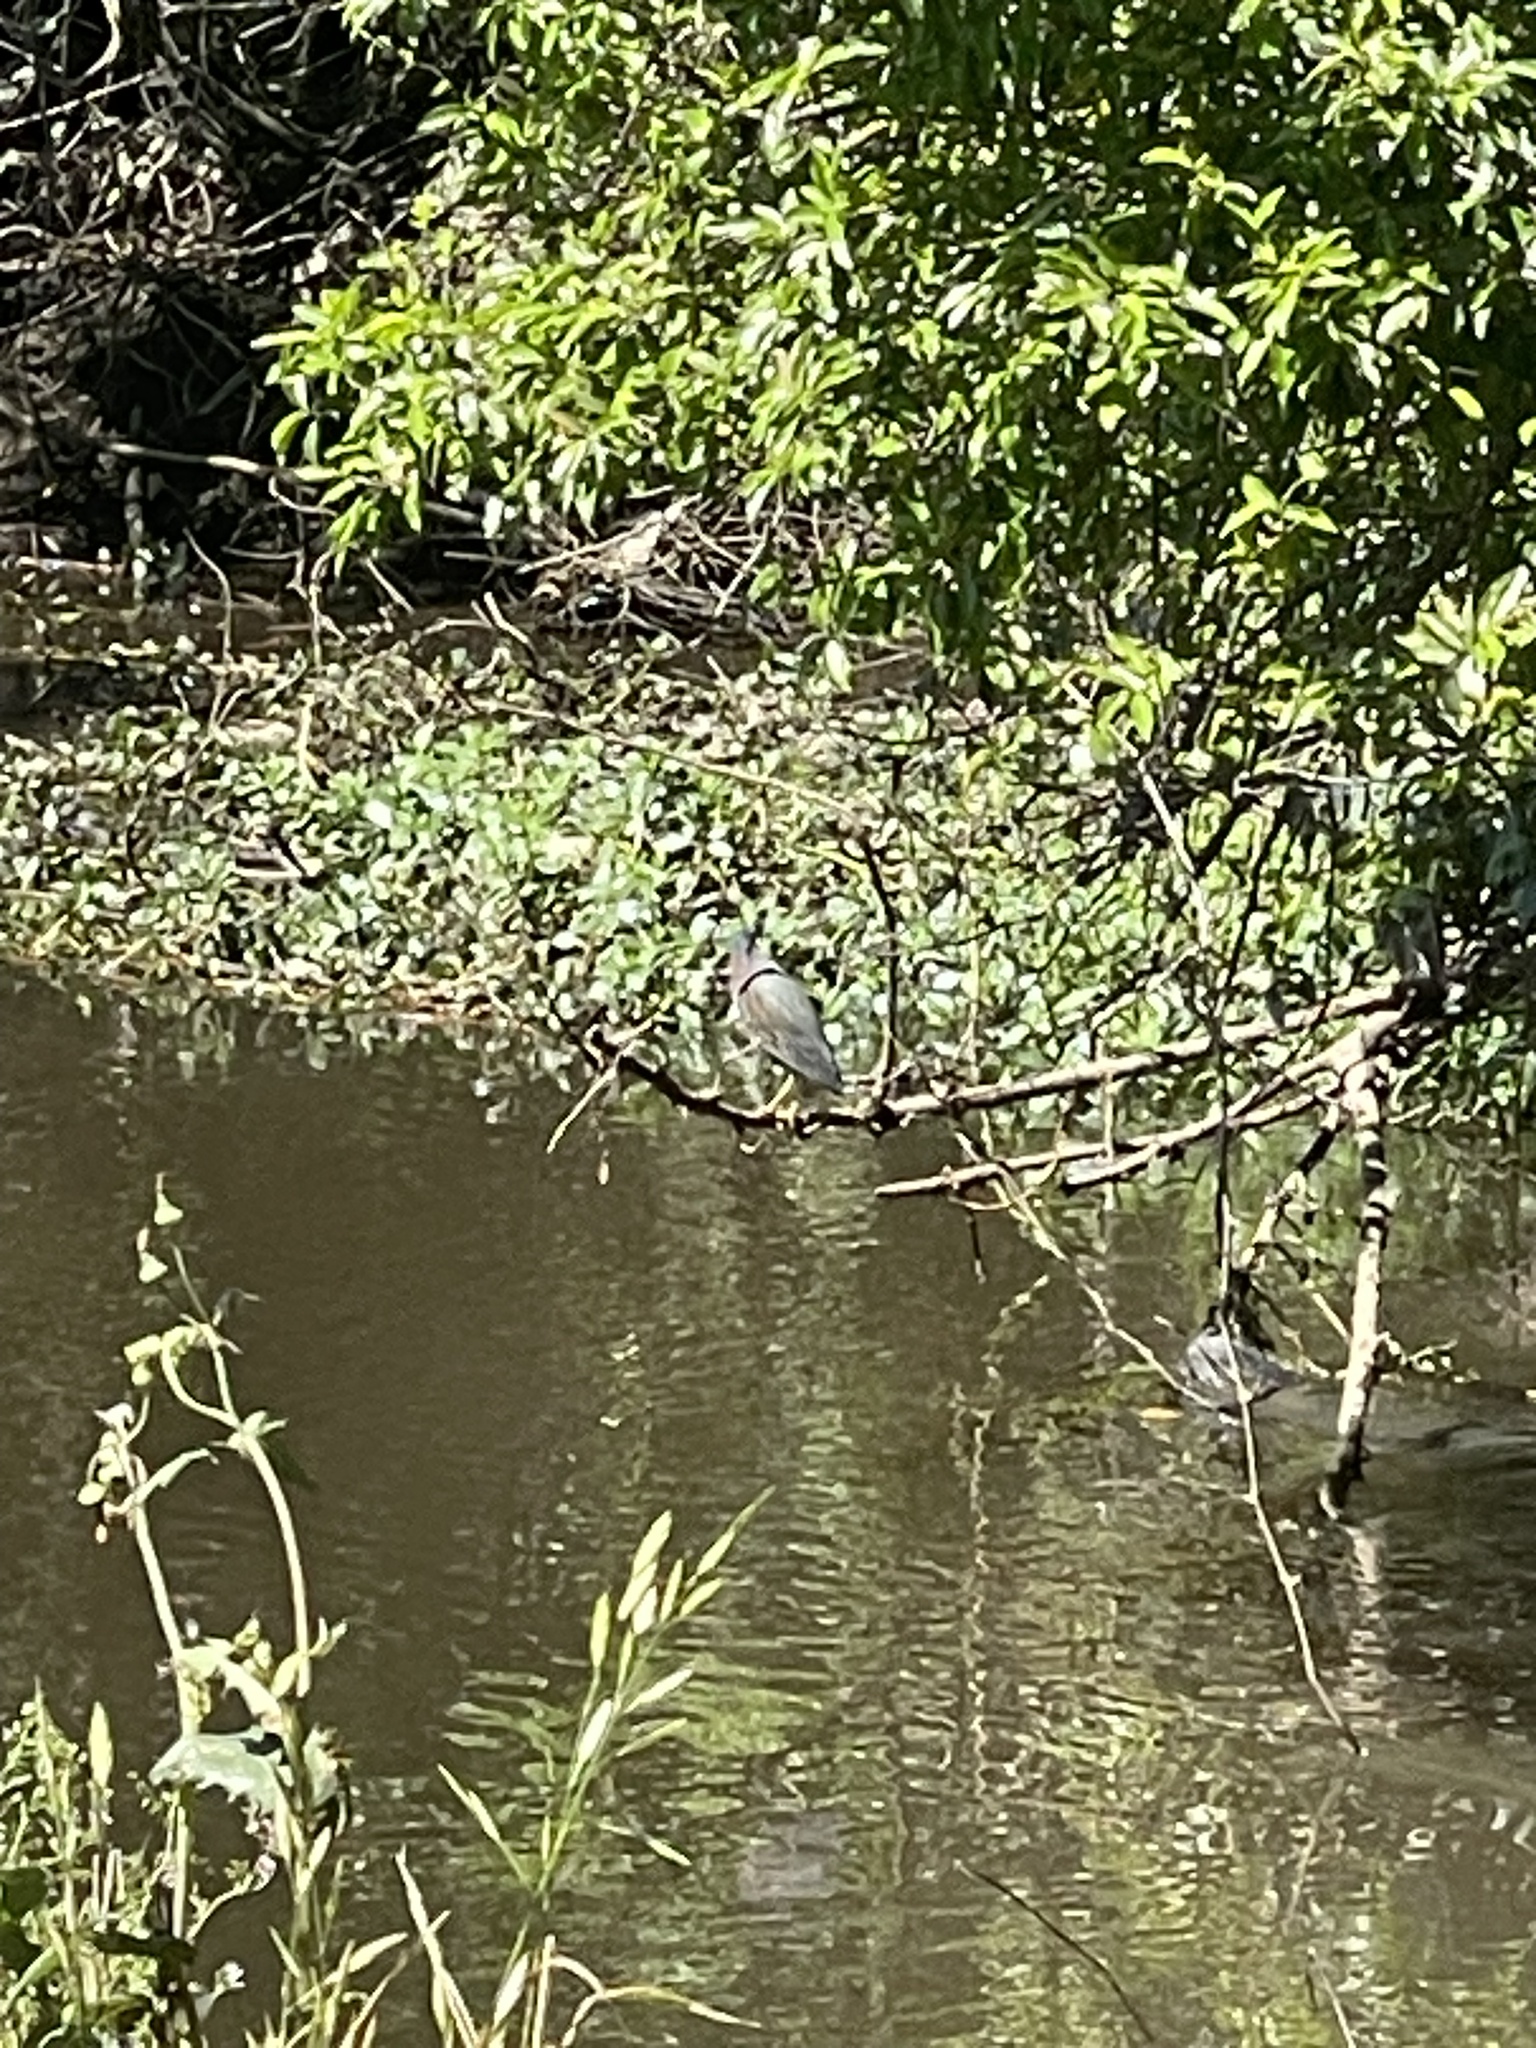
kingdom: Animalia
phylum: Chordata
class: Aves
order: Pelecaniformes
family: Ardeidae
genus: Butorides
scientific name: Butorides virescens
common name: Green heron
